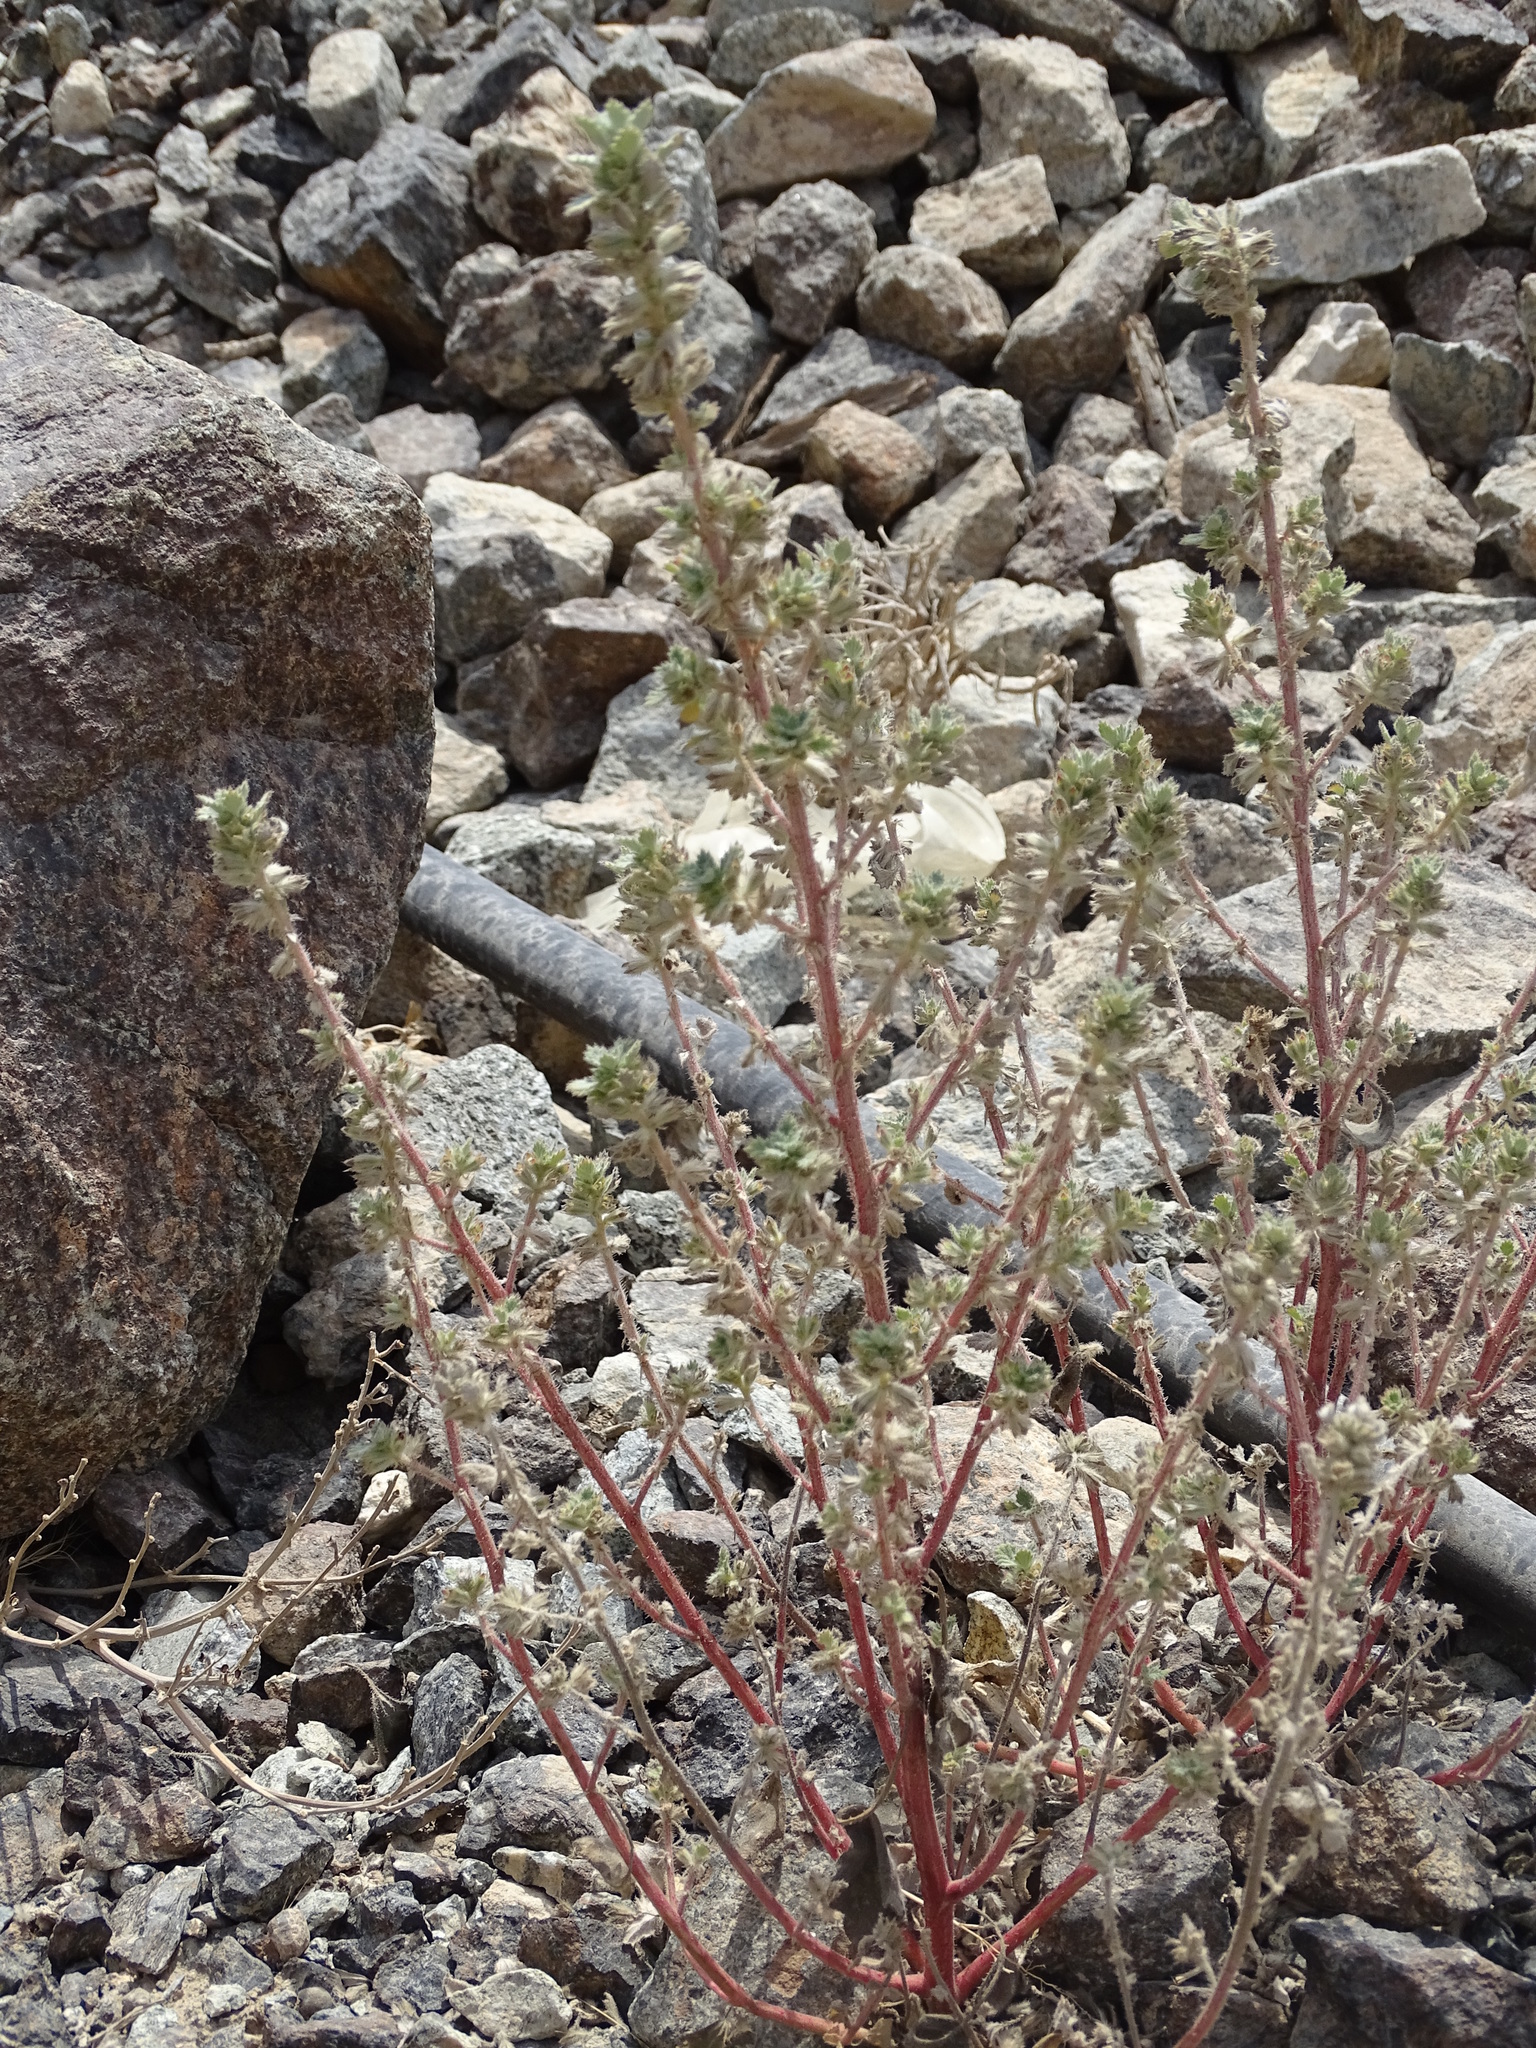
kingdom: Plantae
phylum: Tracheophyta
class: Magnoliopsida
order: Rosales
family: Urticaceae
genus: Forsskaolea
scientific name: Forsskaolea tenacissima
